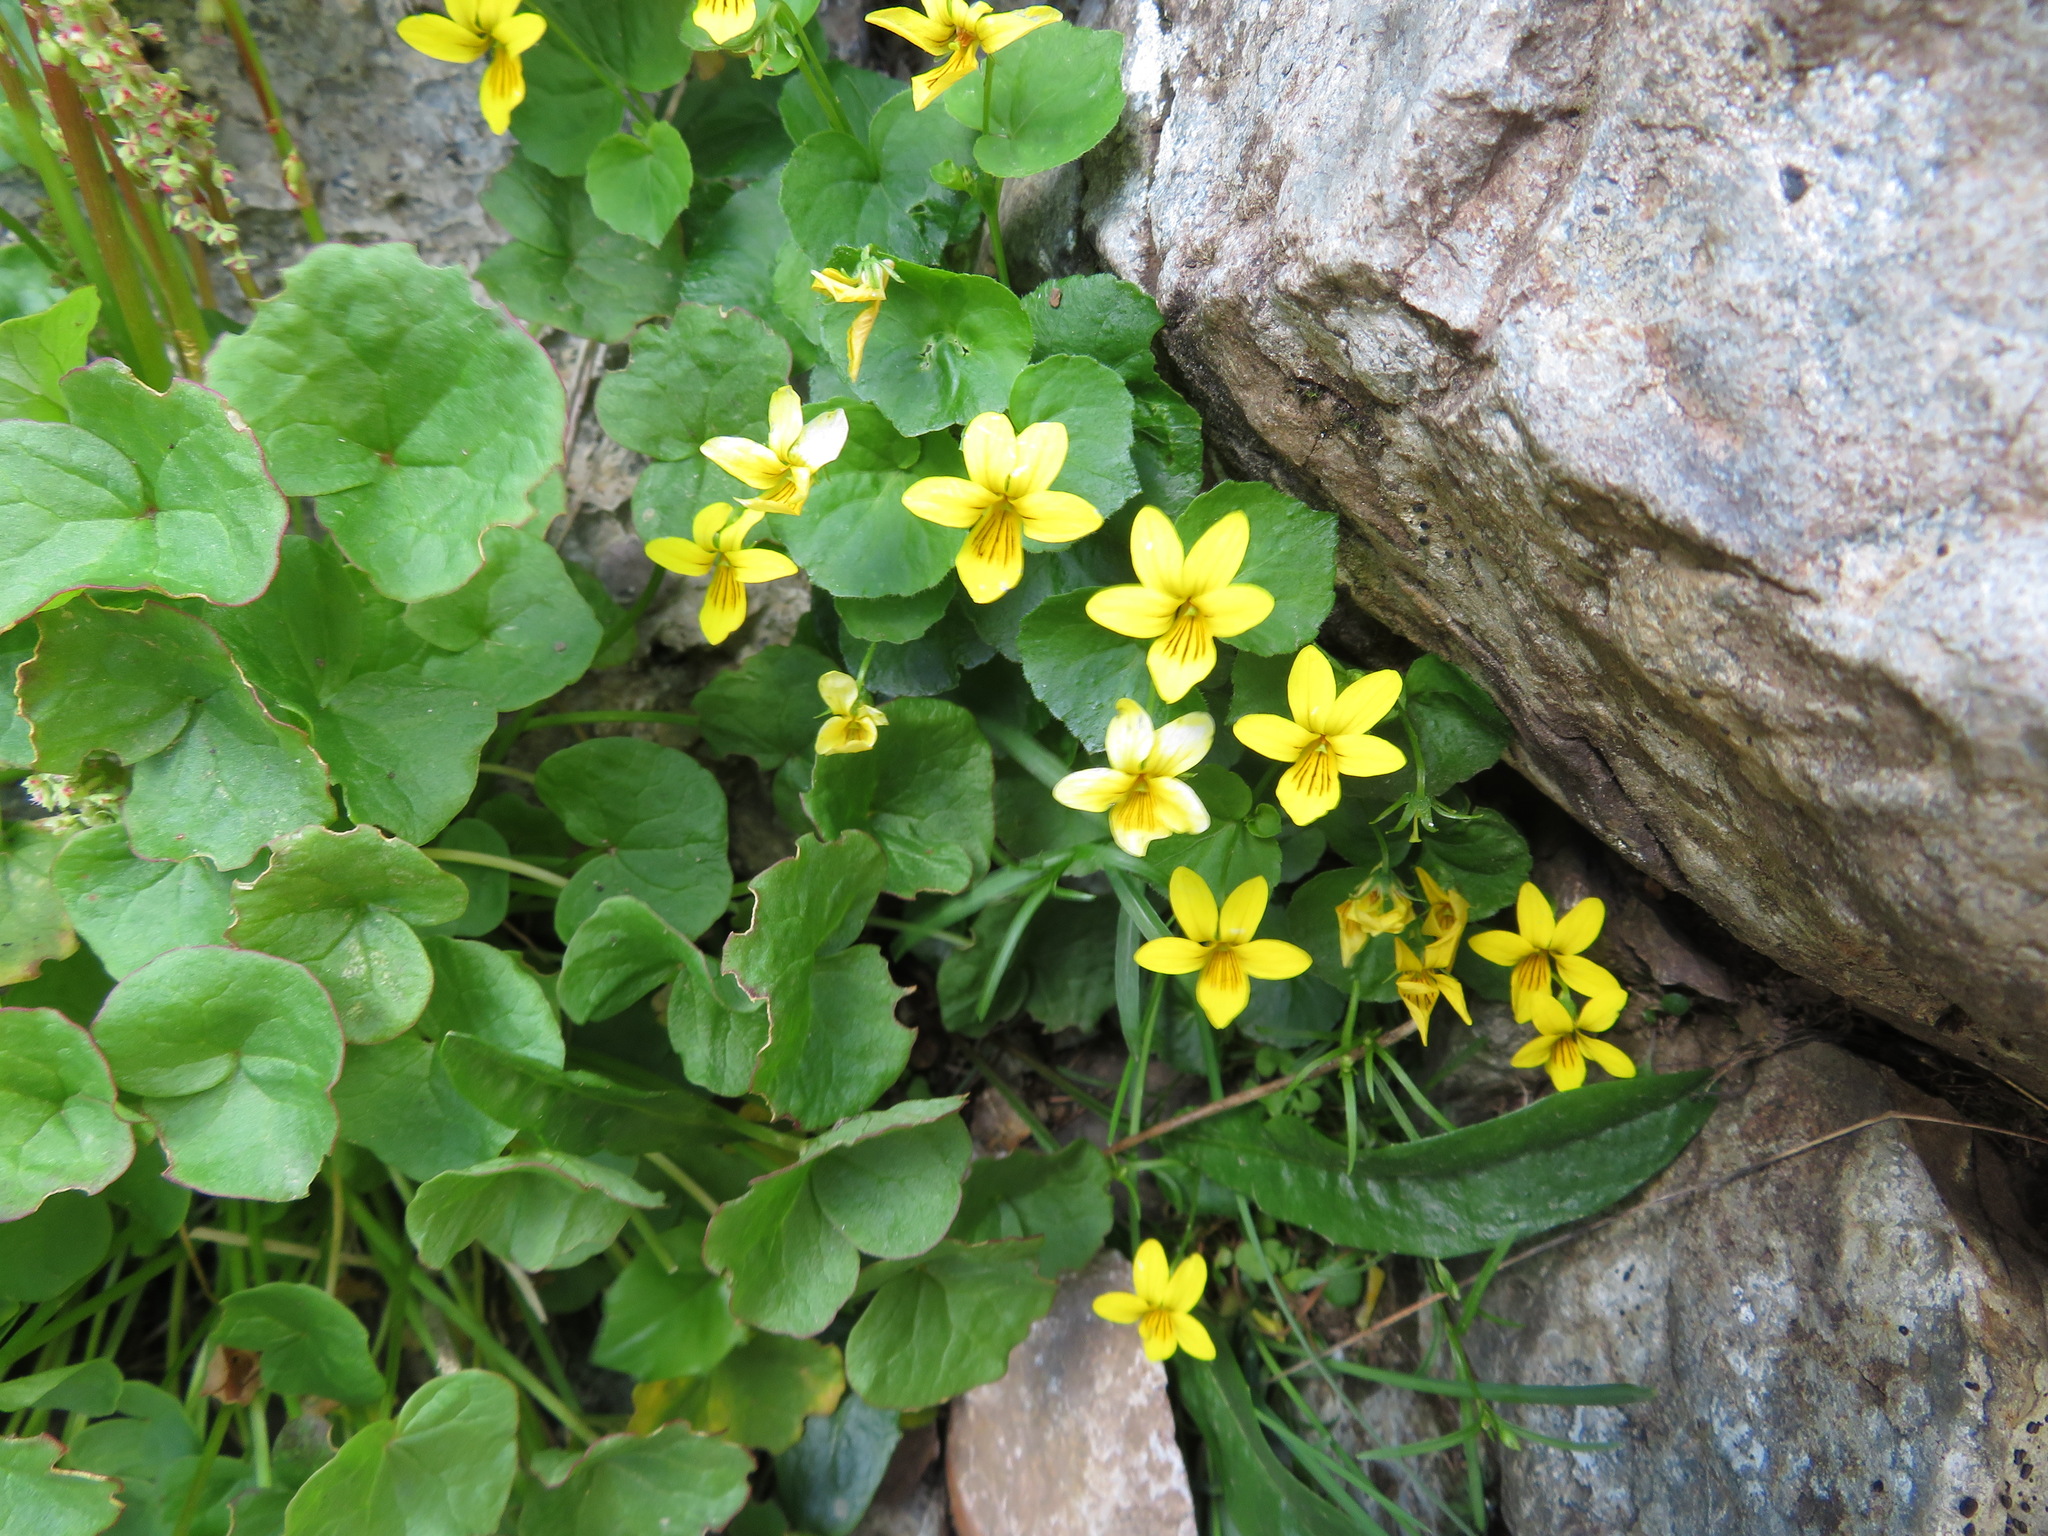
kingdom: Plantae
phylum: Tracheophyta
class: Magnoliopsida
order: Malpighiales
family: Violaceae
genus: Viola
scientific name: Viola biflora
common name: Alpine yellow violet
